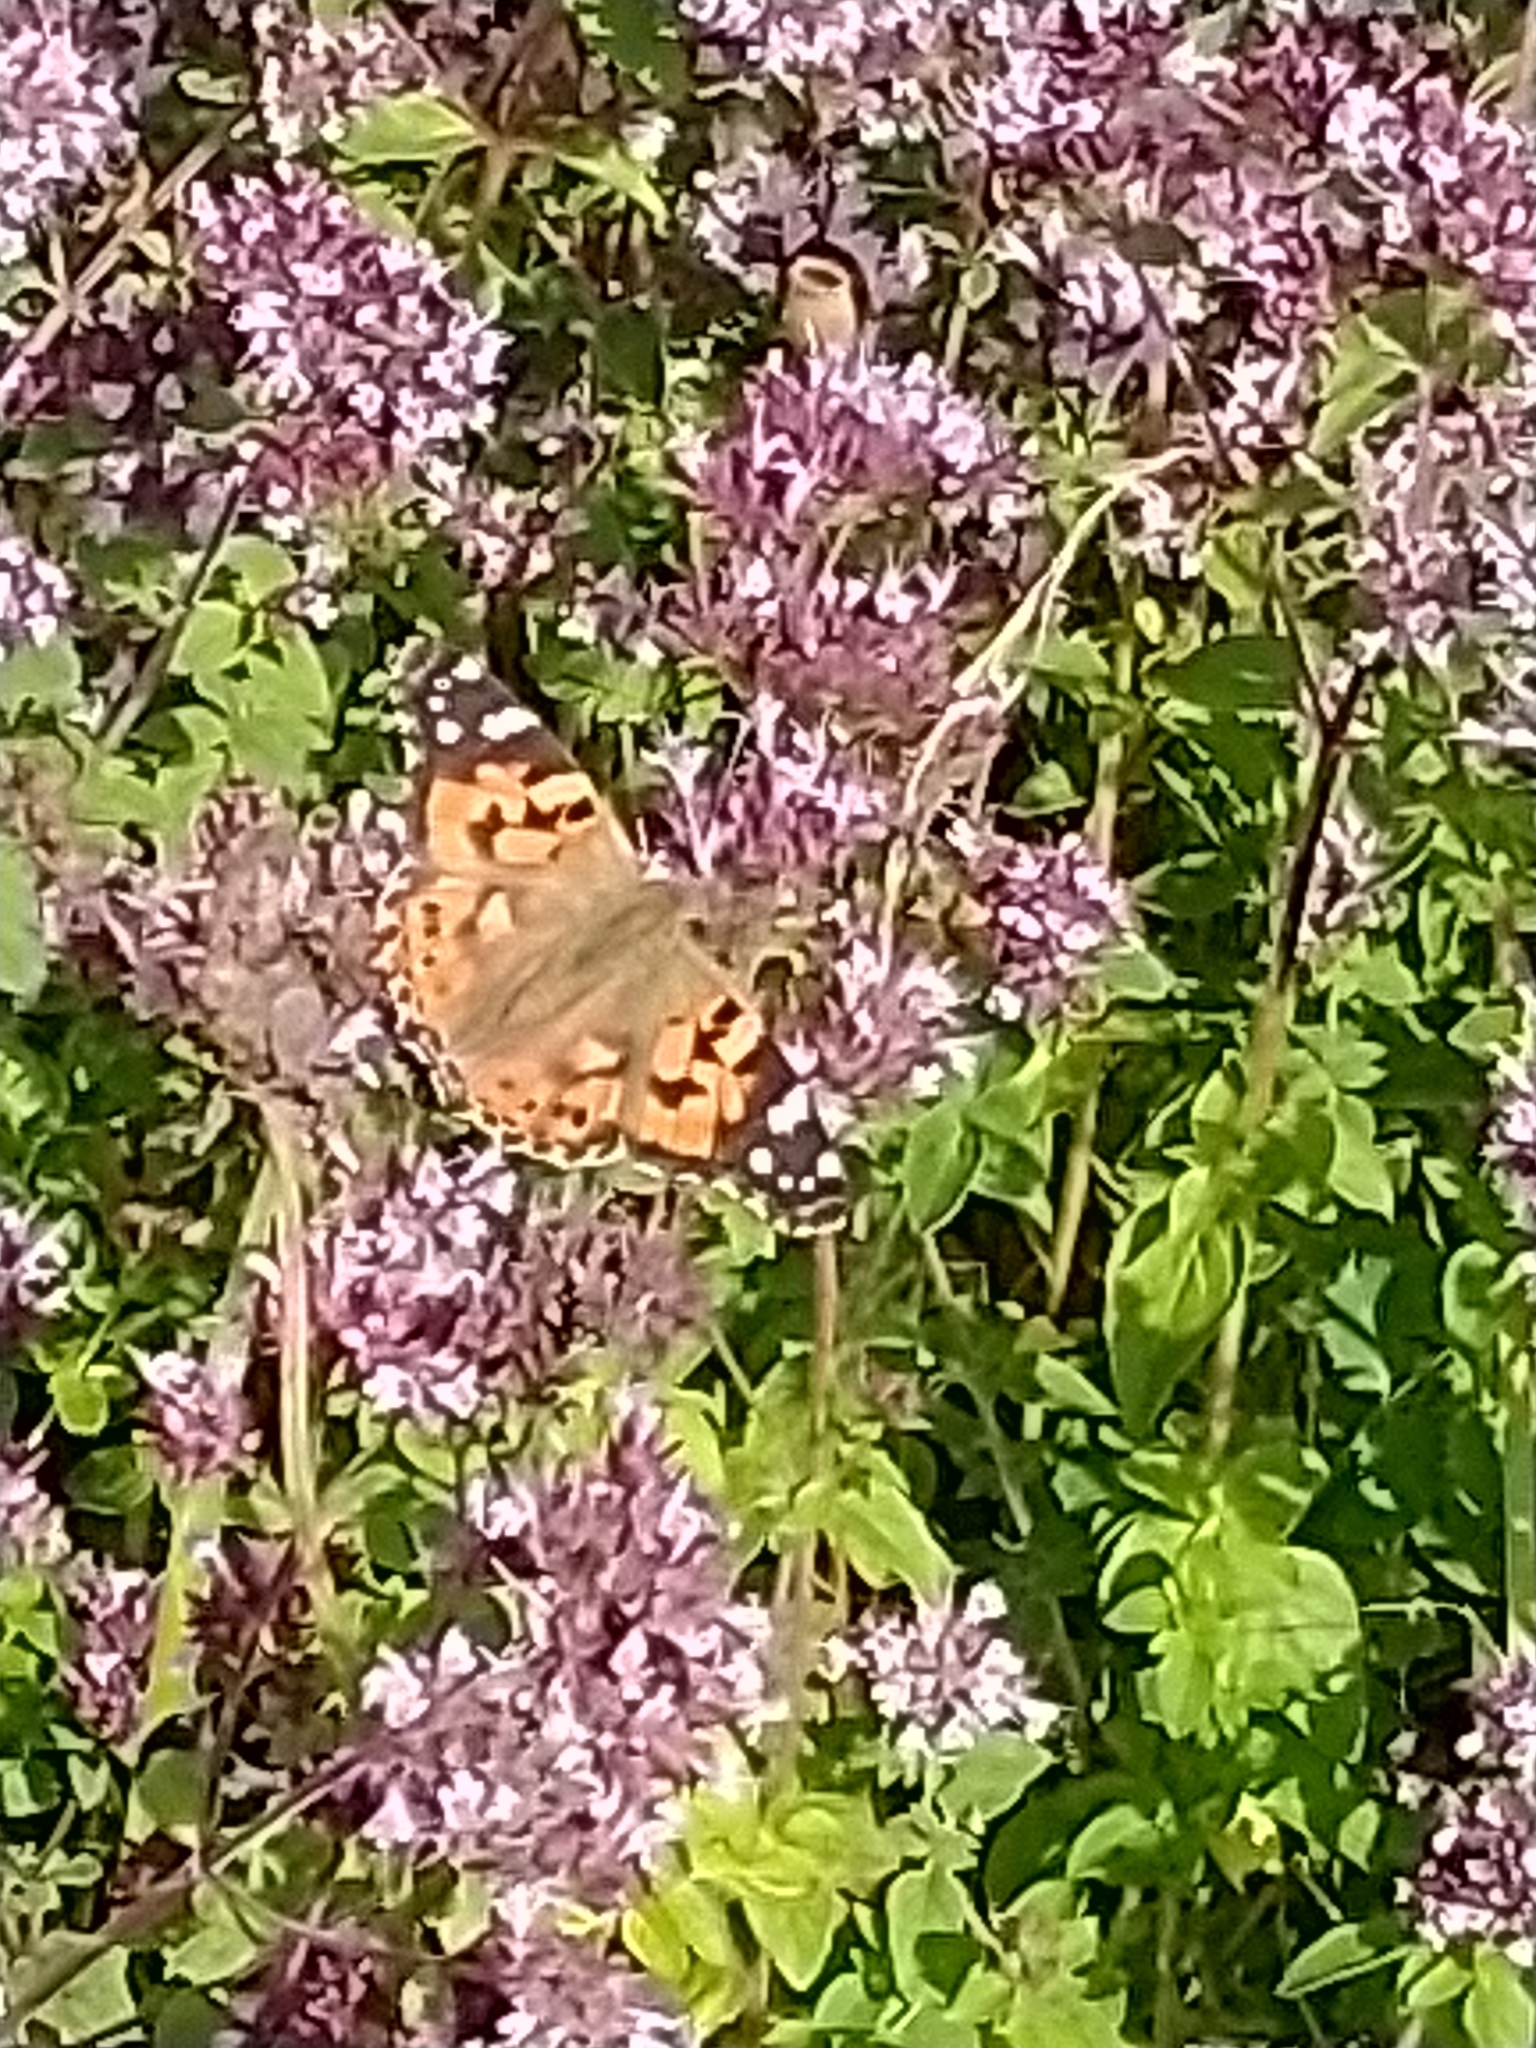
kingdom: Animalia
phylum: Arthropoda
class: Insecta
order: Lepidoptera
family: Nymphalidae
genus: Vanessa
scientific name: Vanessa cardui
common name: Painted lady
